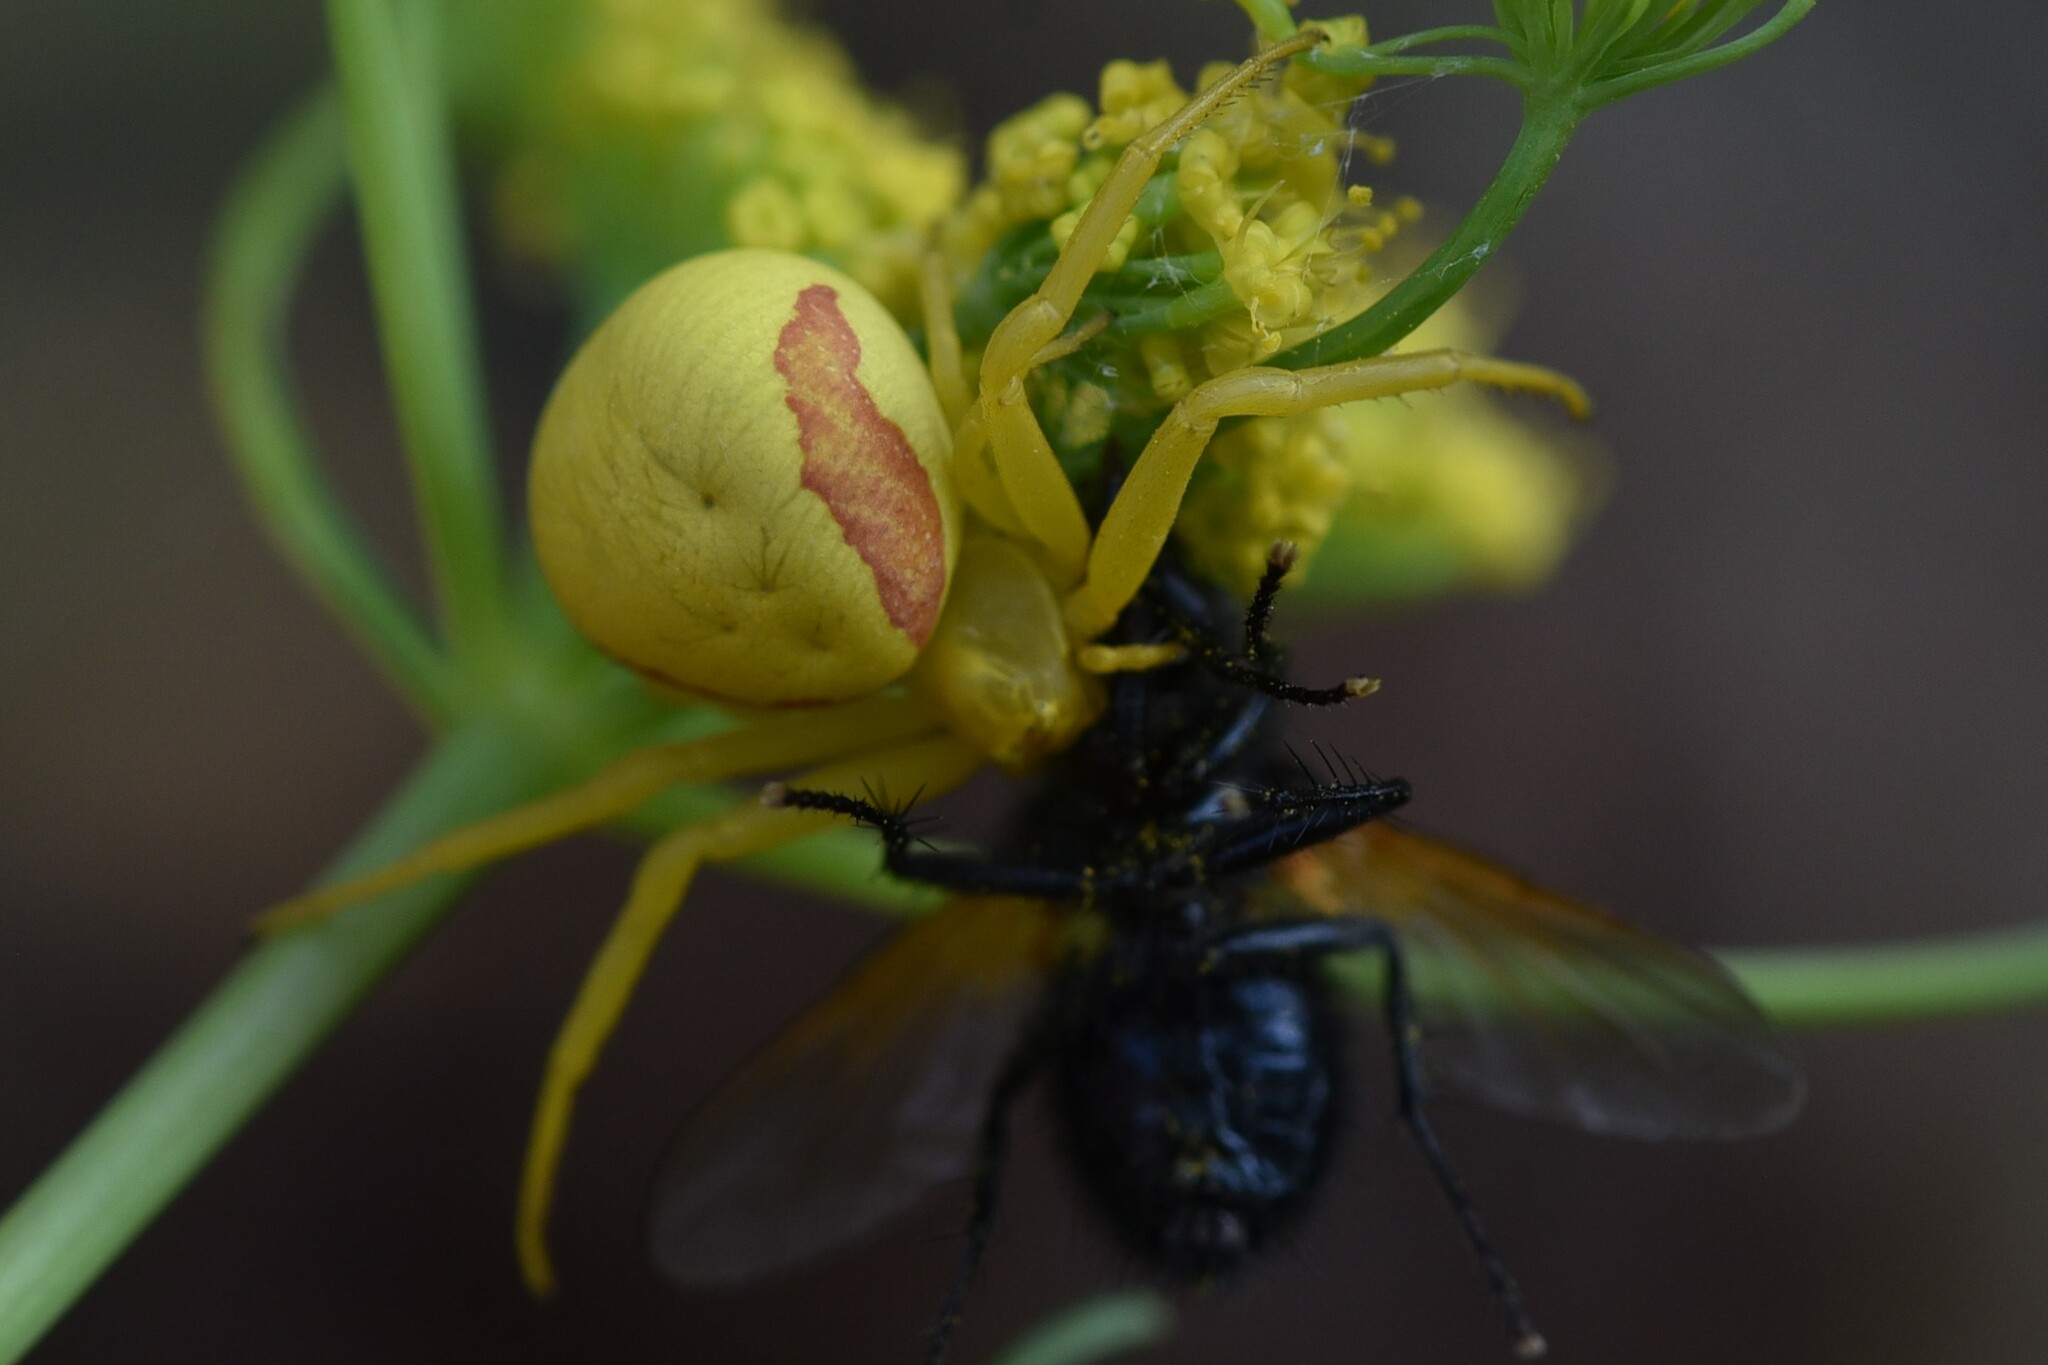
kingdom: Animalia
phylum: Arthropoda
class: Arachnida
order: Araneae
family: Thomisidae
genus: Misumena
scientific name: Misumena vatia
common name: Goldenrod crab spider
